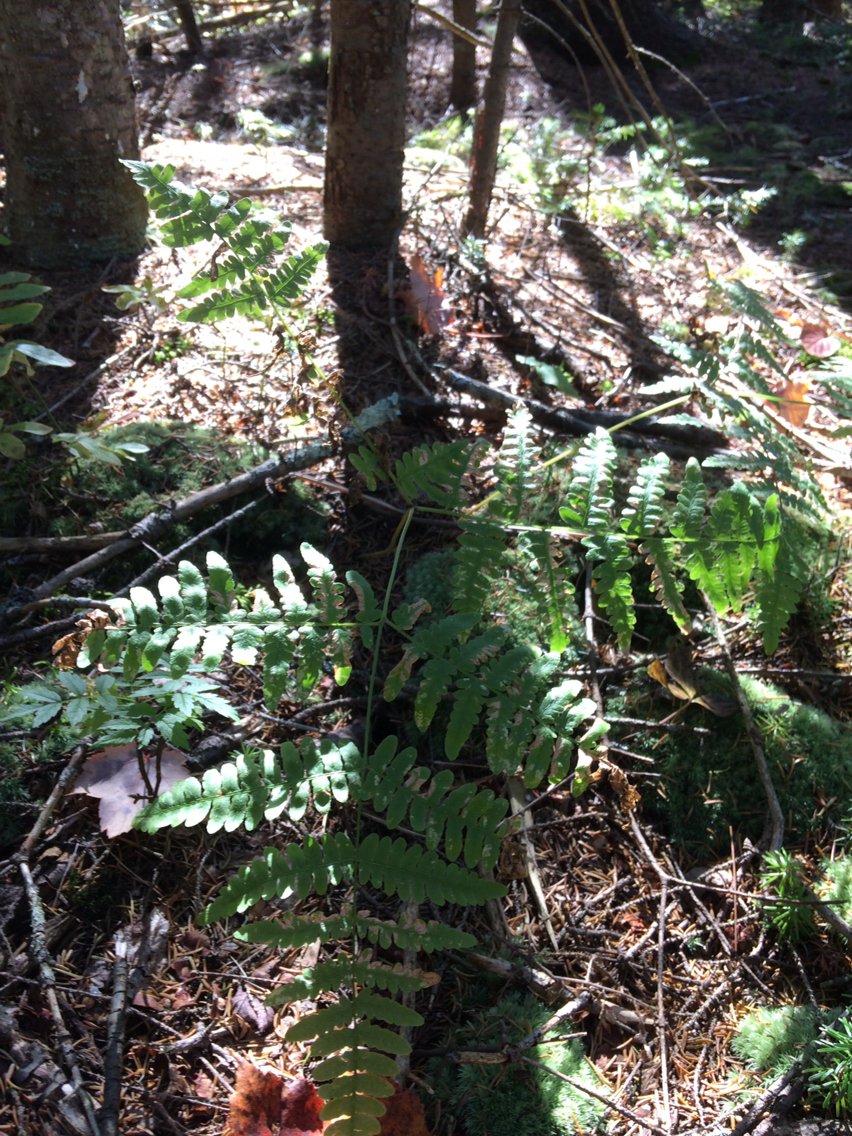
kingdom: Plantae
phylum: Tracheophyta
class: Polypodiopsida
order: Polypodiales
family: Dennstaedtiaceae
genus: Pteridium
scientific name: Pteridium aquilinum
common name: Bracken
